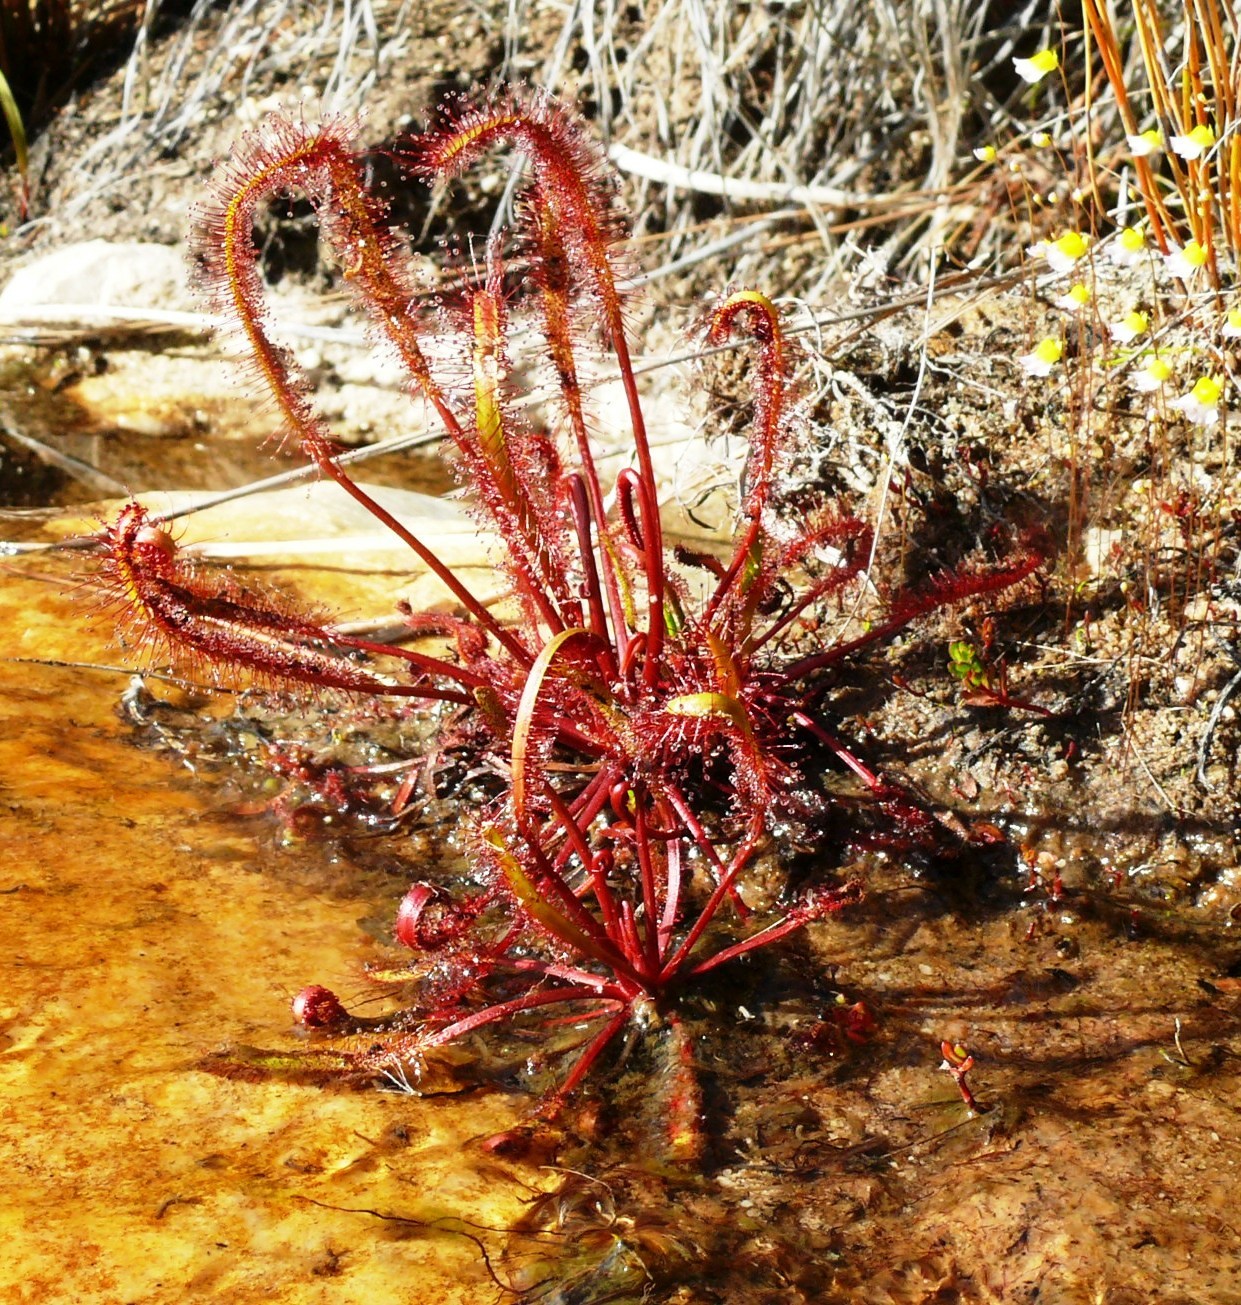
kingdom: Plantae
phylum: Tracheophyta
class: Magnoliopsida
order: Caryophyllales
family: Droseraceae
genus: Drosera
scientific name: Drosera capensis
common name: Cape sundew
